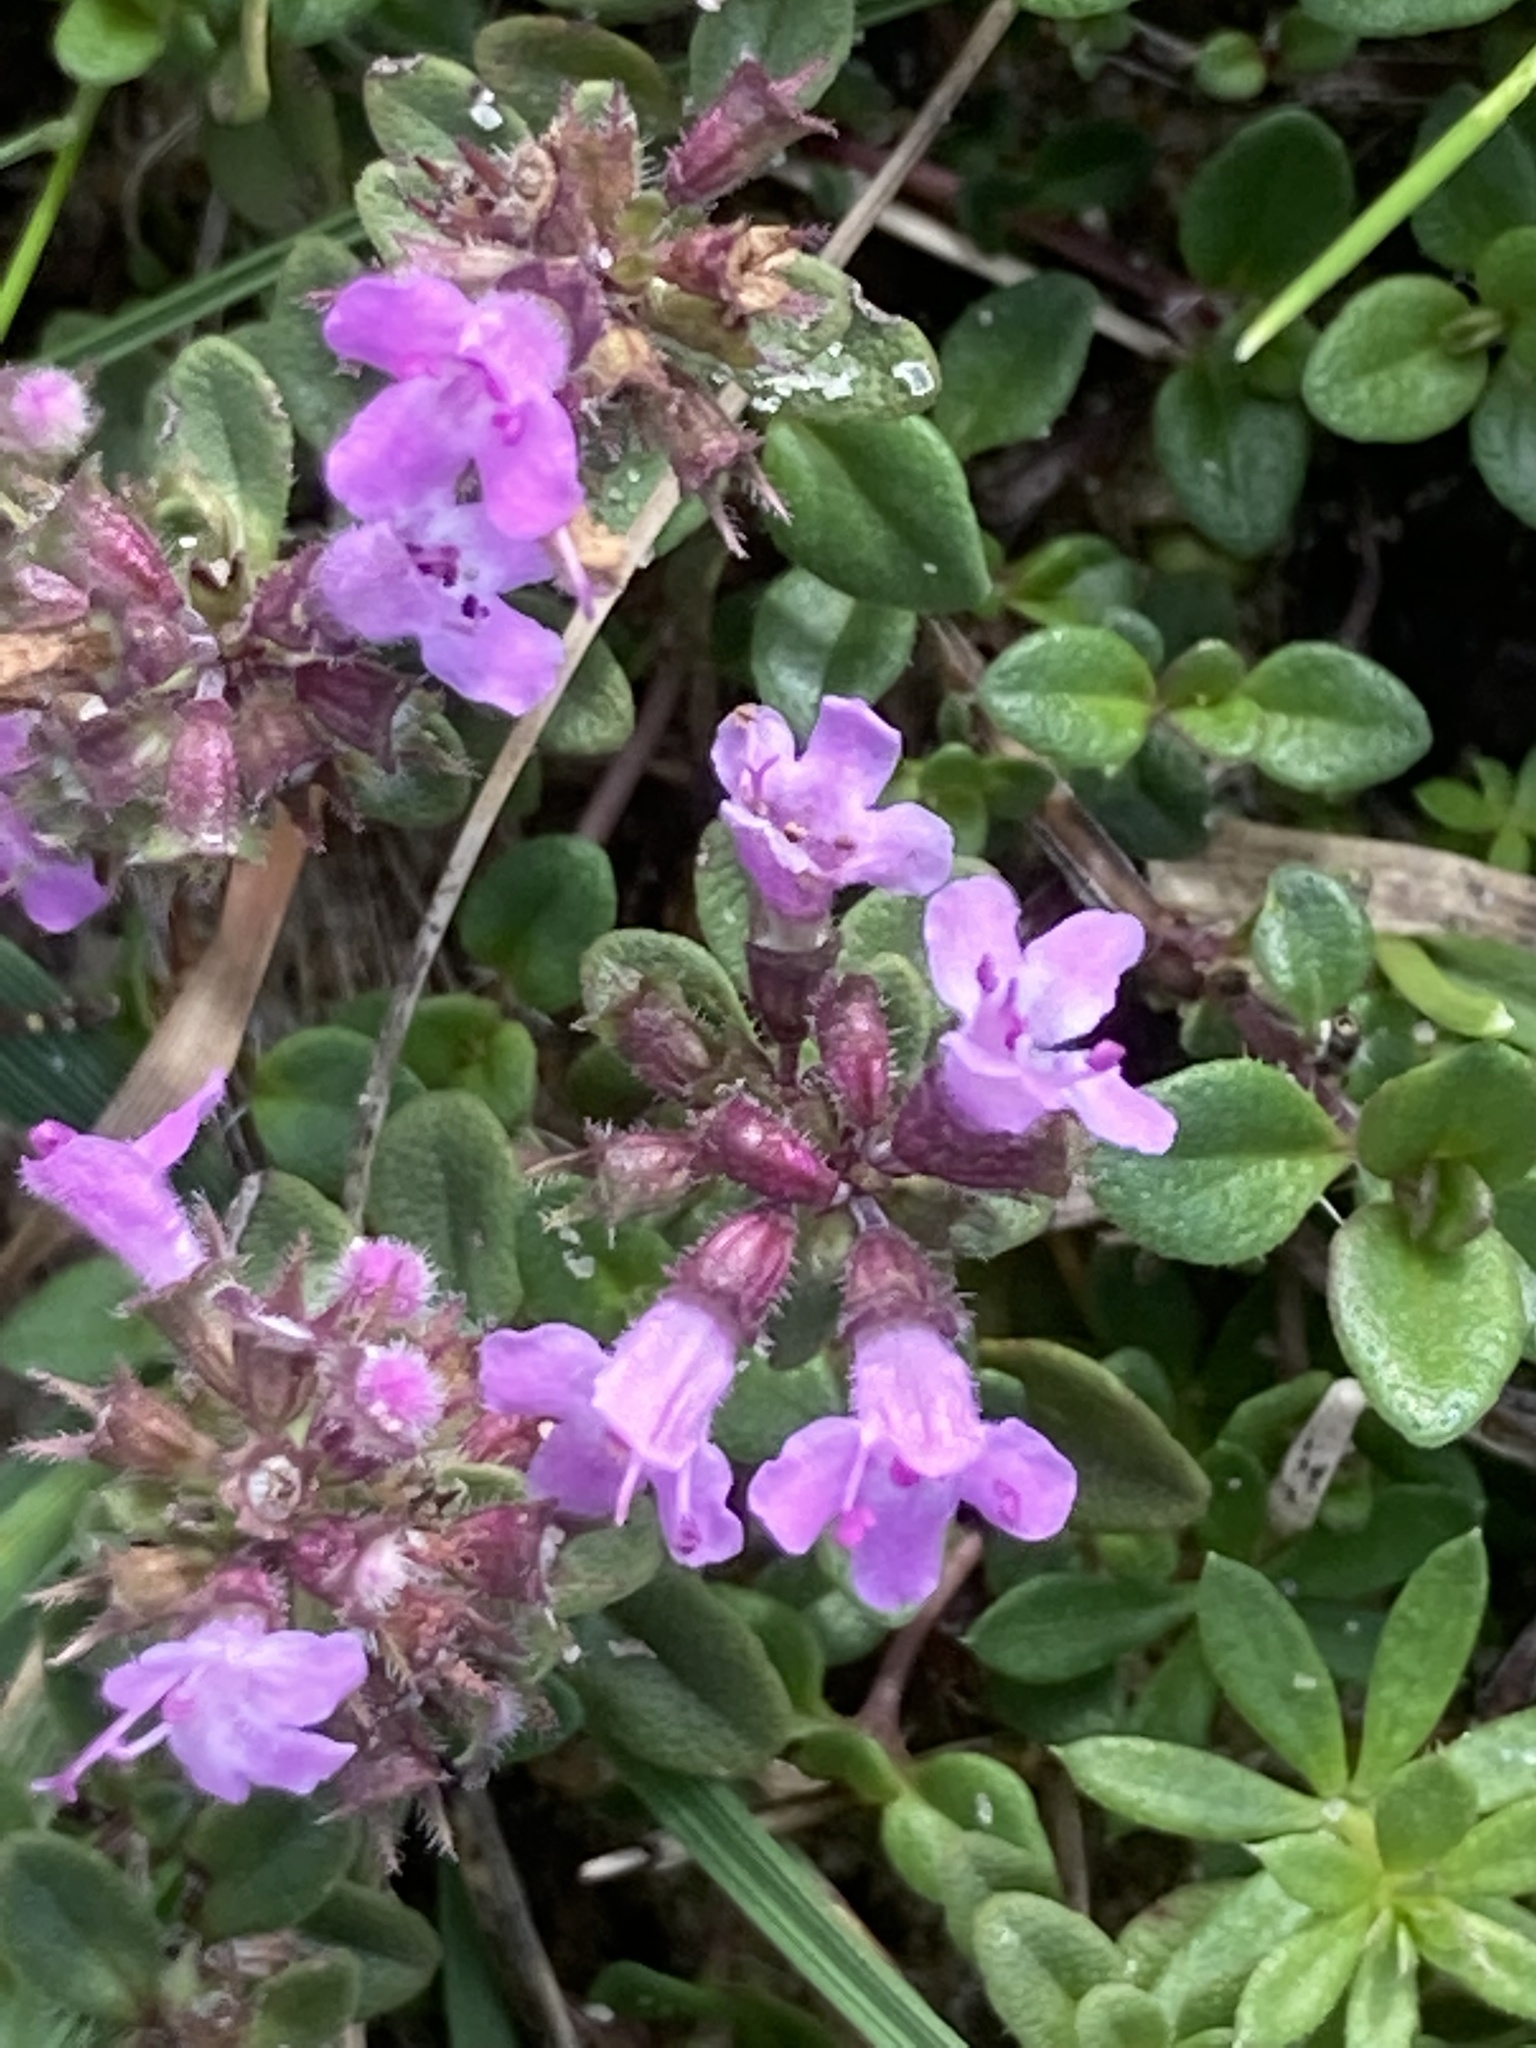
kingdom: Plantae
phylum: Tracheophyta
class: Magnoliopsida
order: Lamiales
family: Lamiaceae
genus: Thymus
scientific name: Thymus pulegioides
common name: Large thyme
